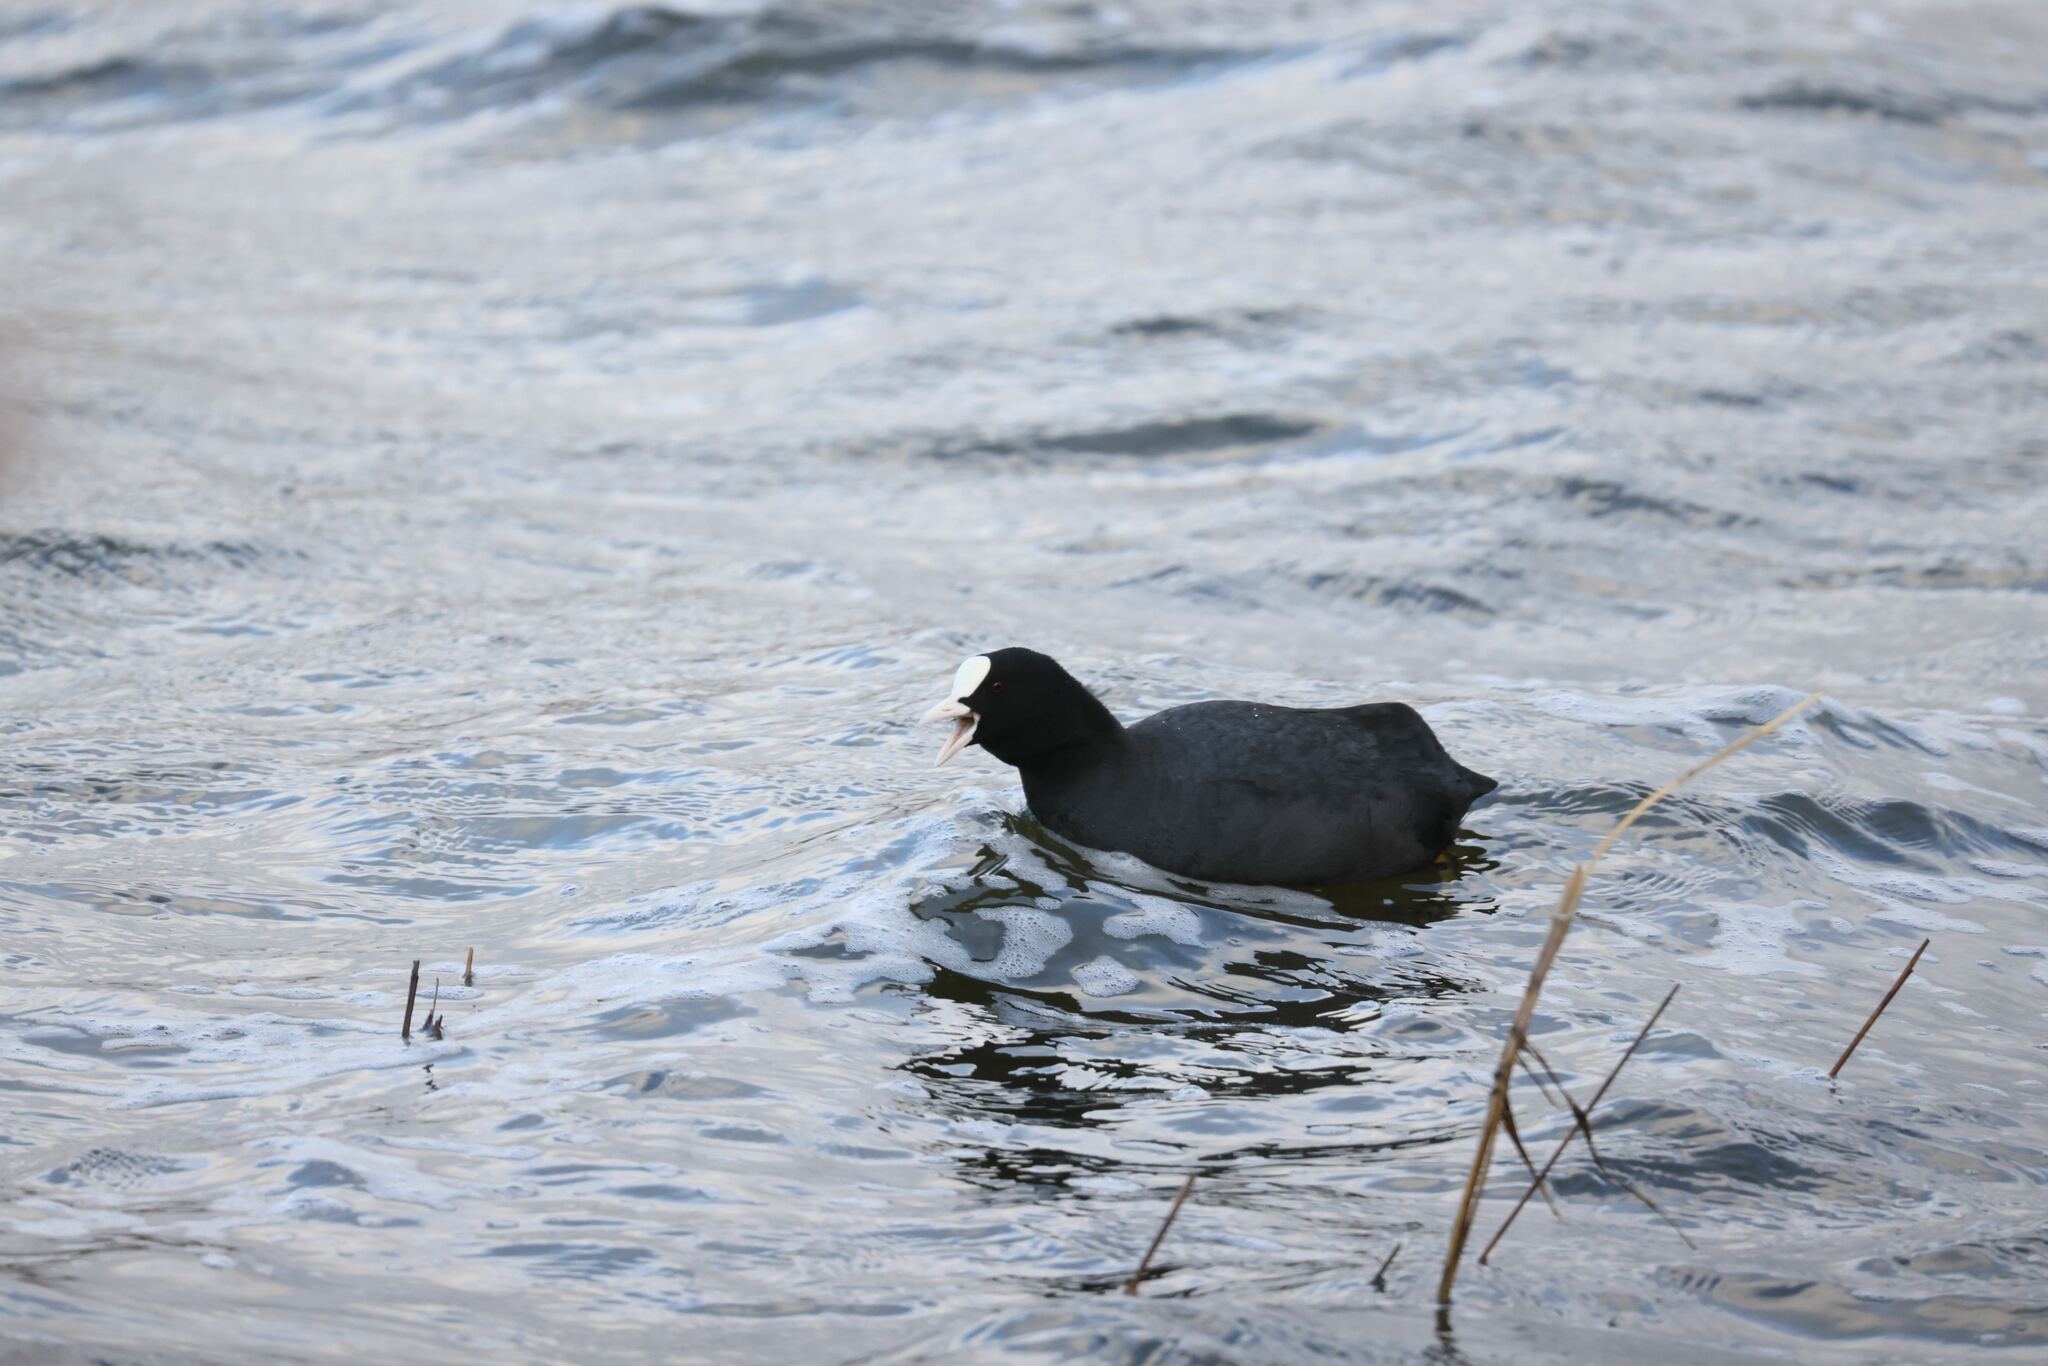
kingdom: Animalia
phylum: Chordata
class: Aves
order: Gruiformes
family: Rallidae
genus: Fulica
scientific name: Fulica atra
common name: Eurasian coot
